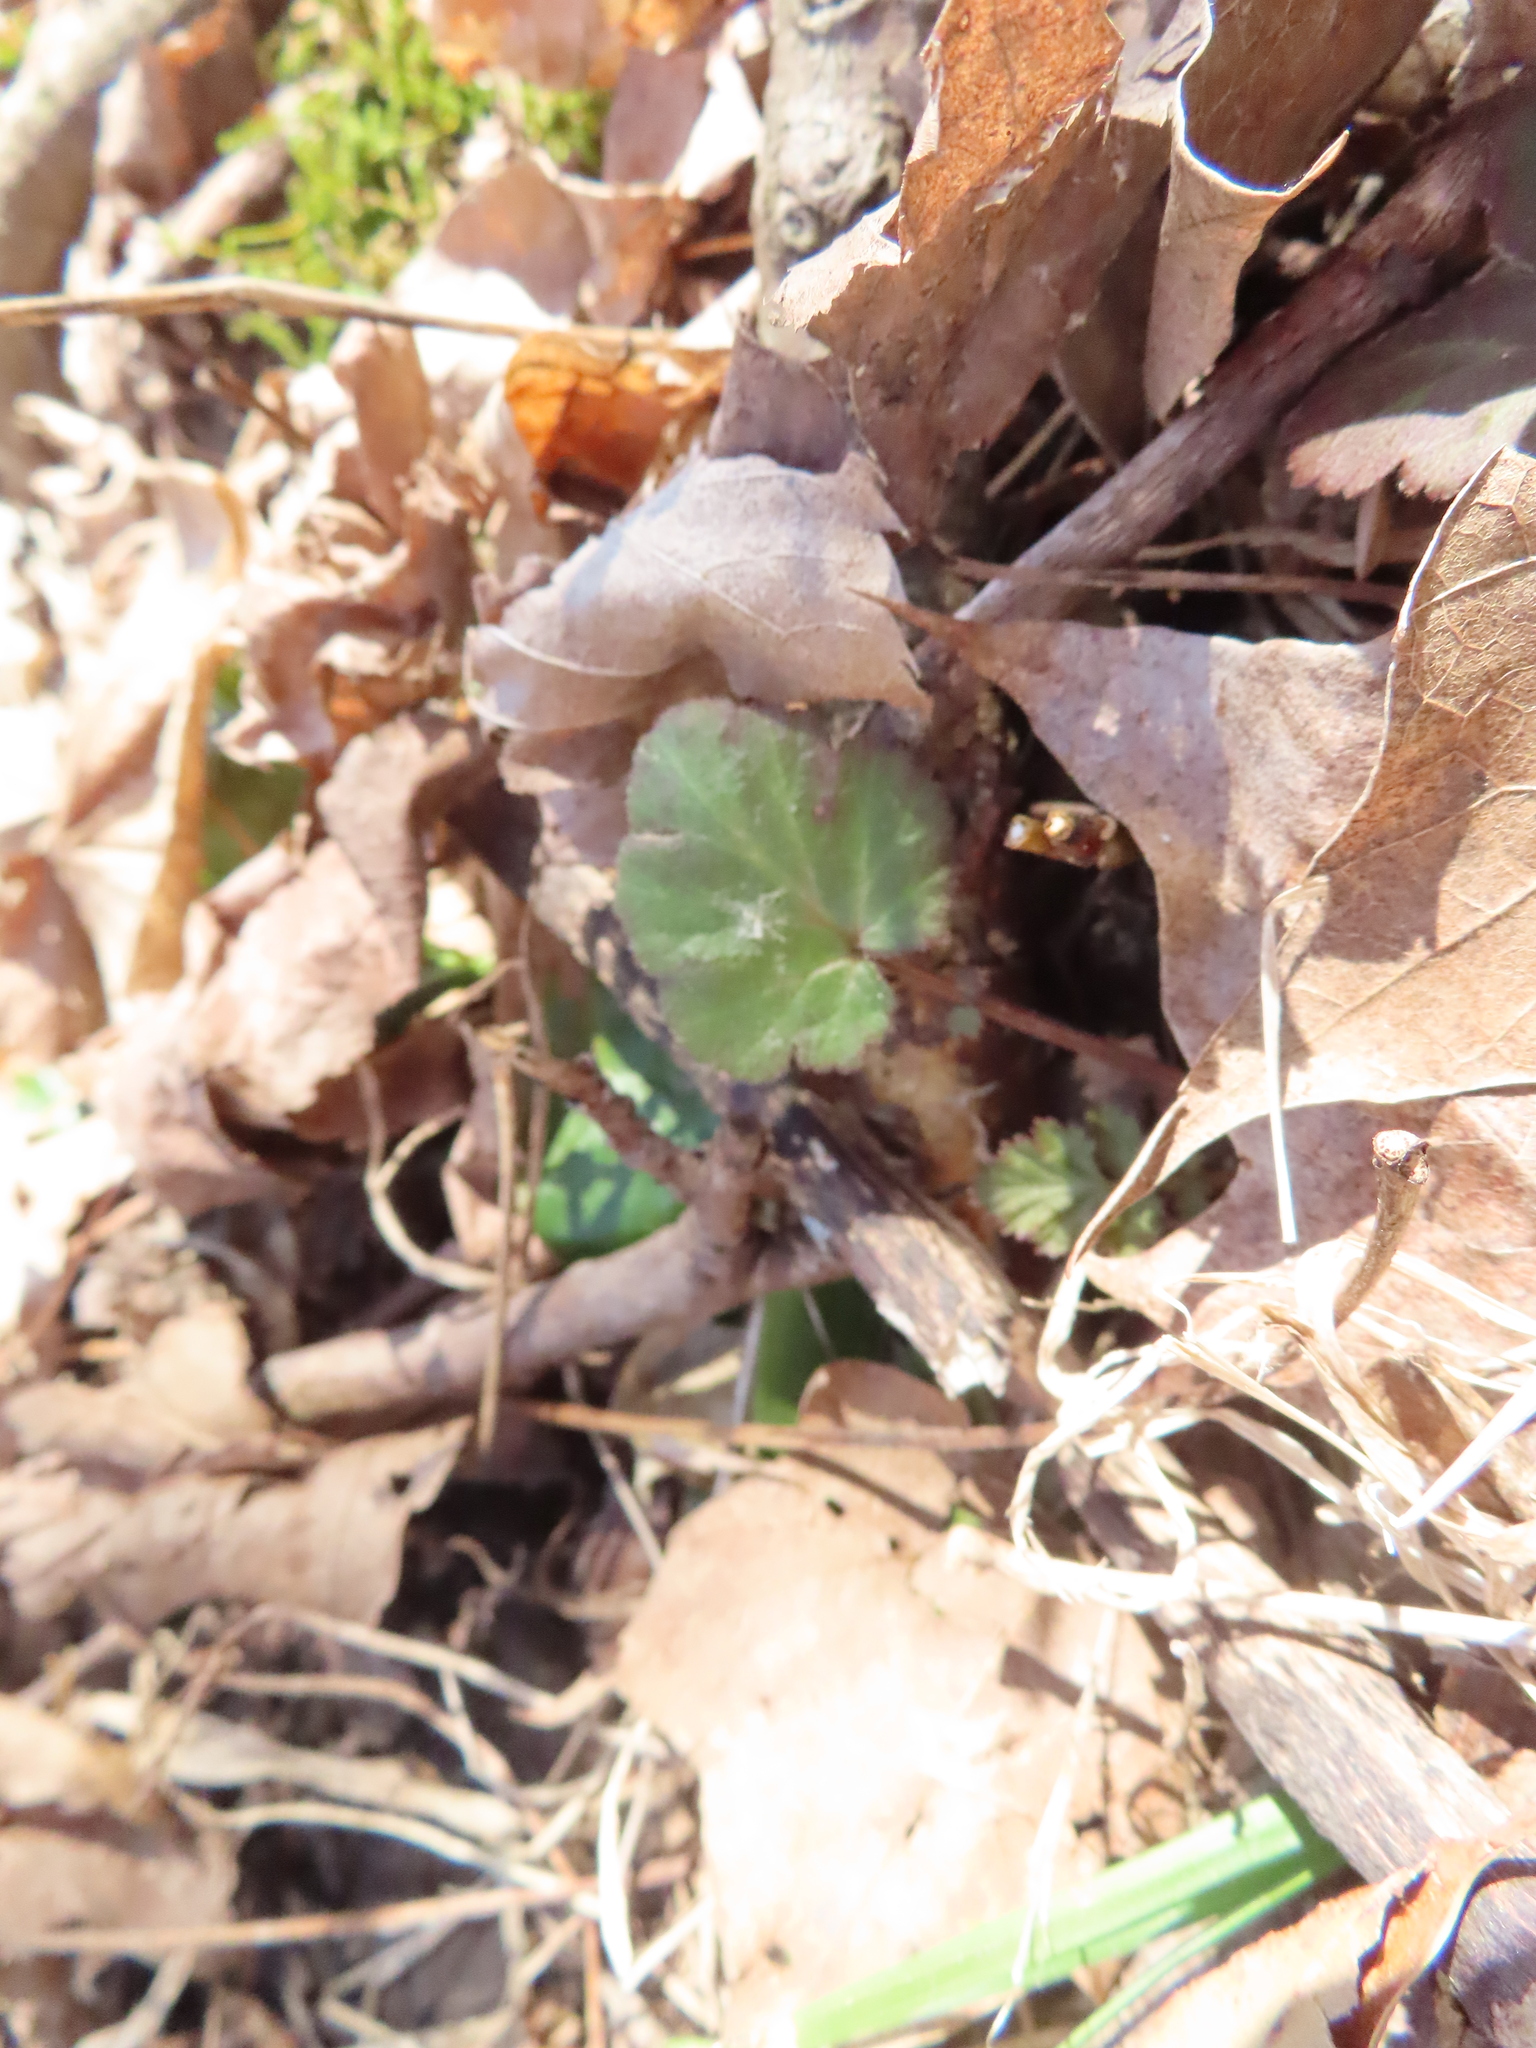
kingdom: Plantae
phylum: Tracheophyta
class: Magnoliopsida
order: Rosales
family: Rosaceae
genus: Geum
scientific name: Geum canadense
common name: White avens
